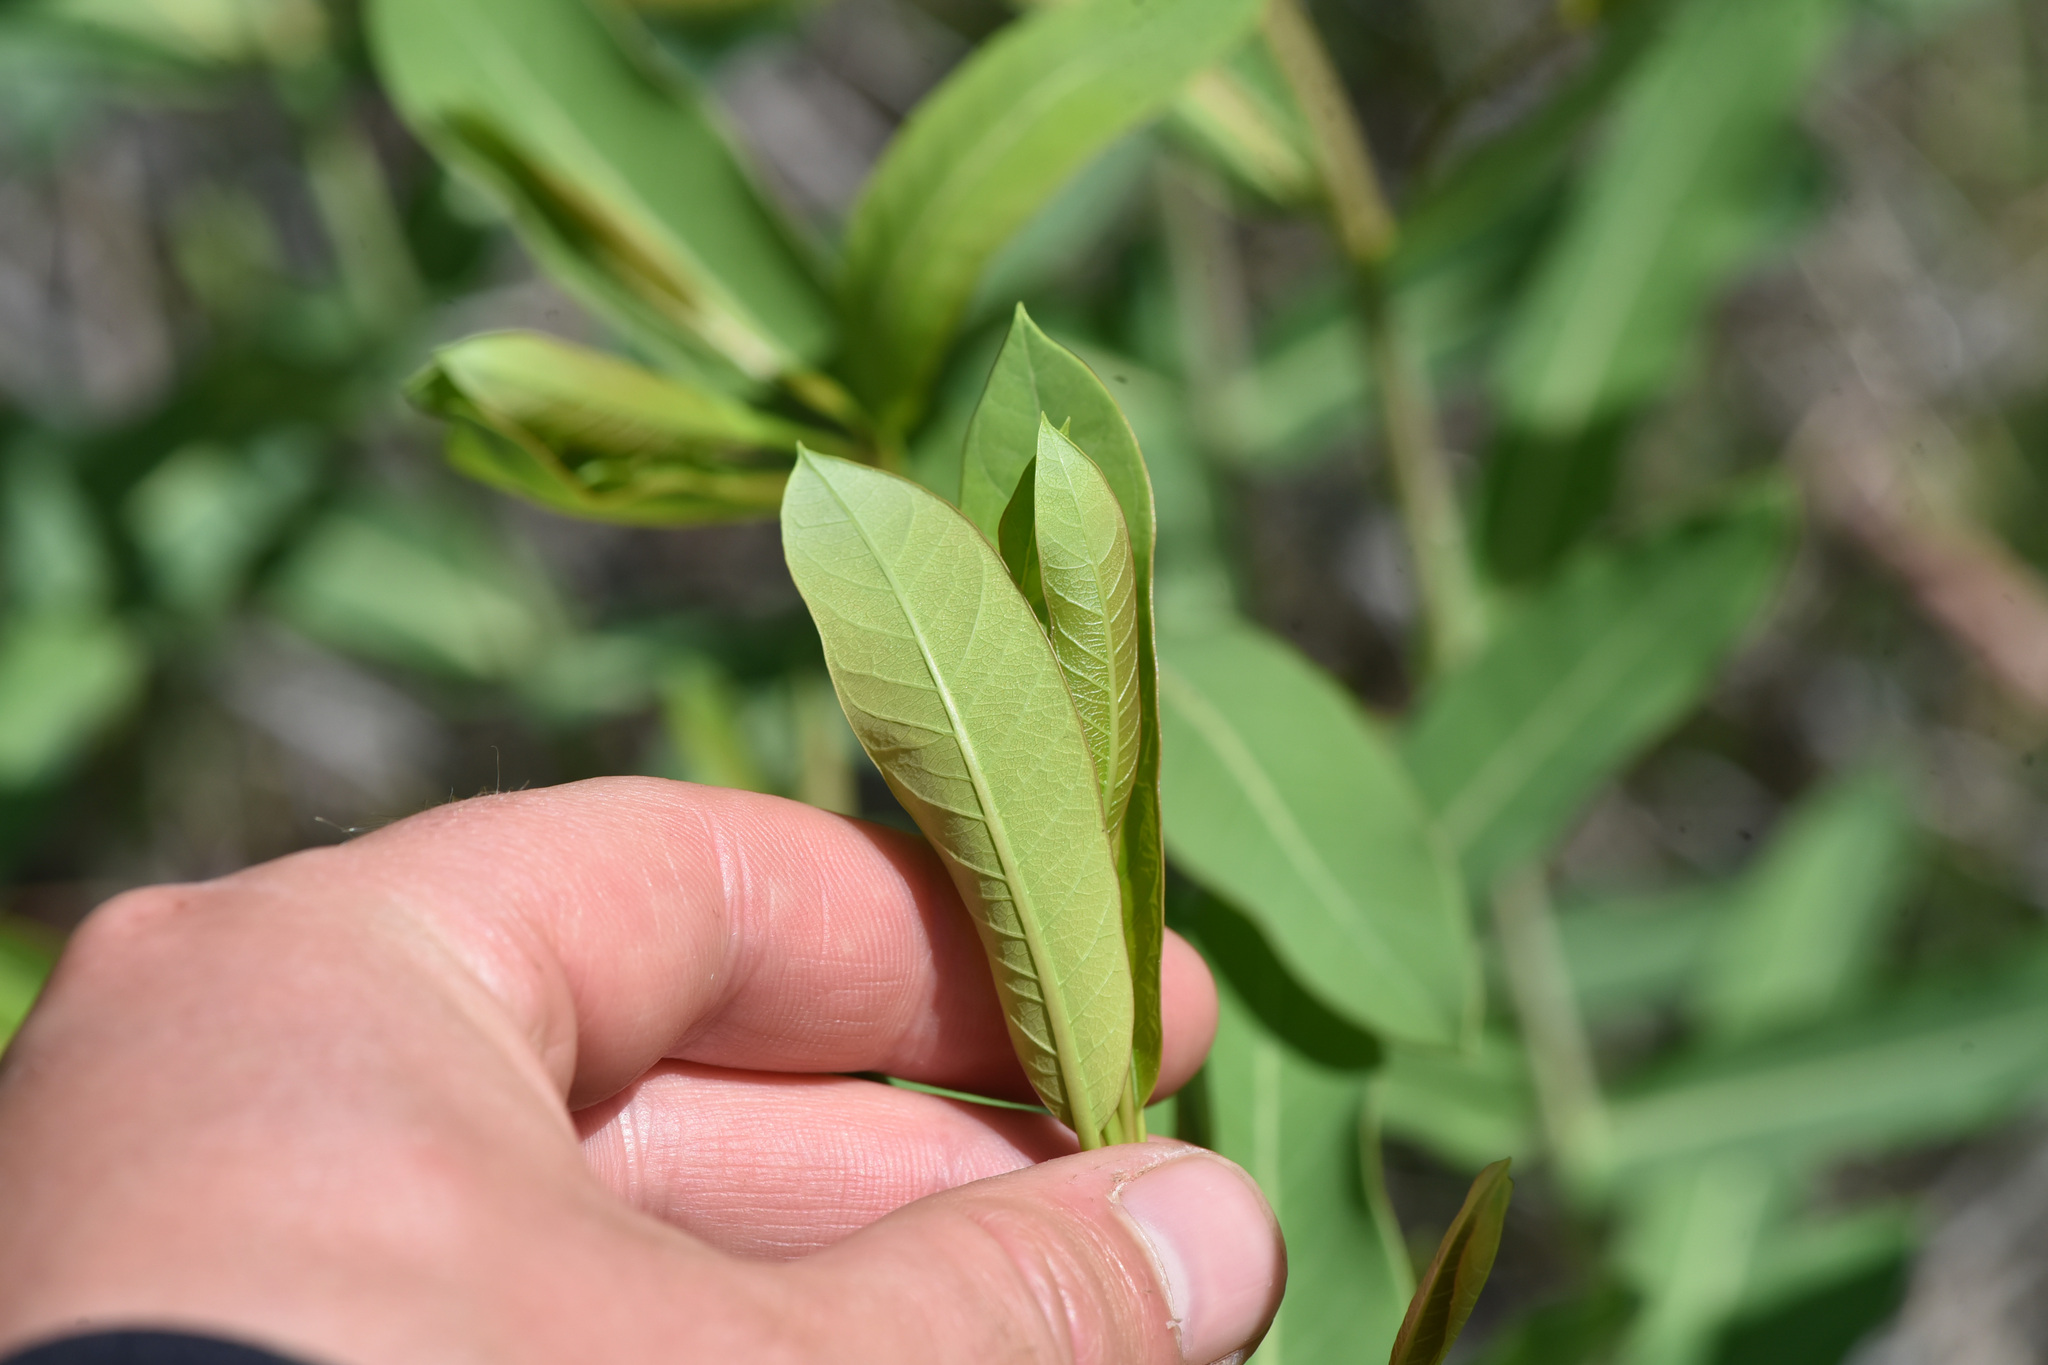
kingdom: Plantae
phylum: Tracheophyta
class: Magnoliopsida
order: Gentianales
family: Apocynaceae
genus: Apocynum
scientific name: Apocynum cannabinum
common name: Hemp dogbane
